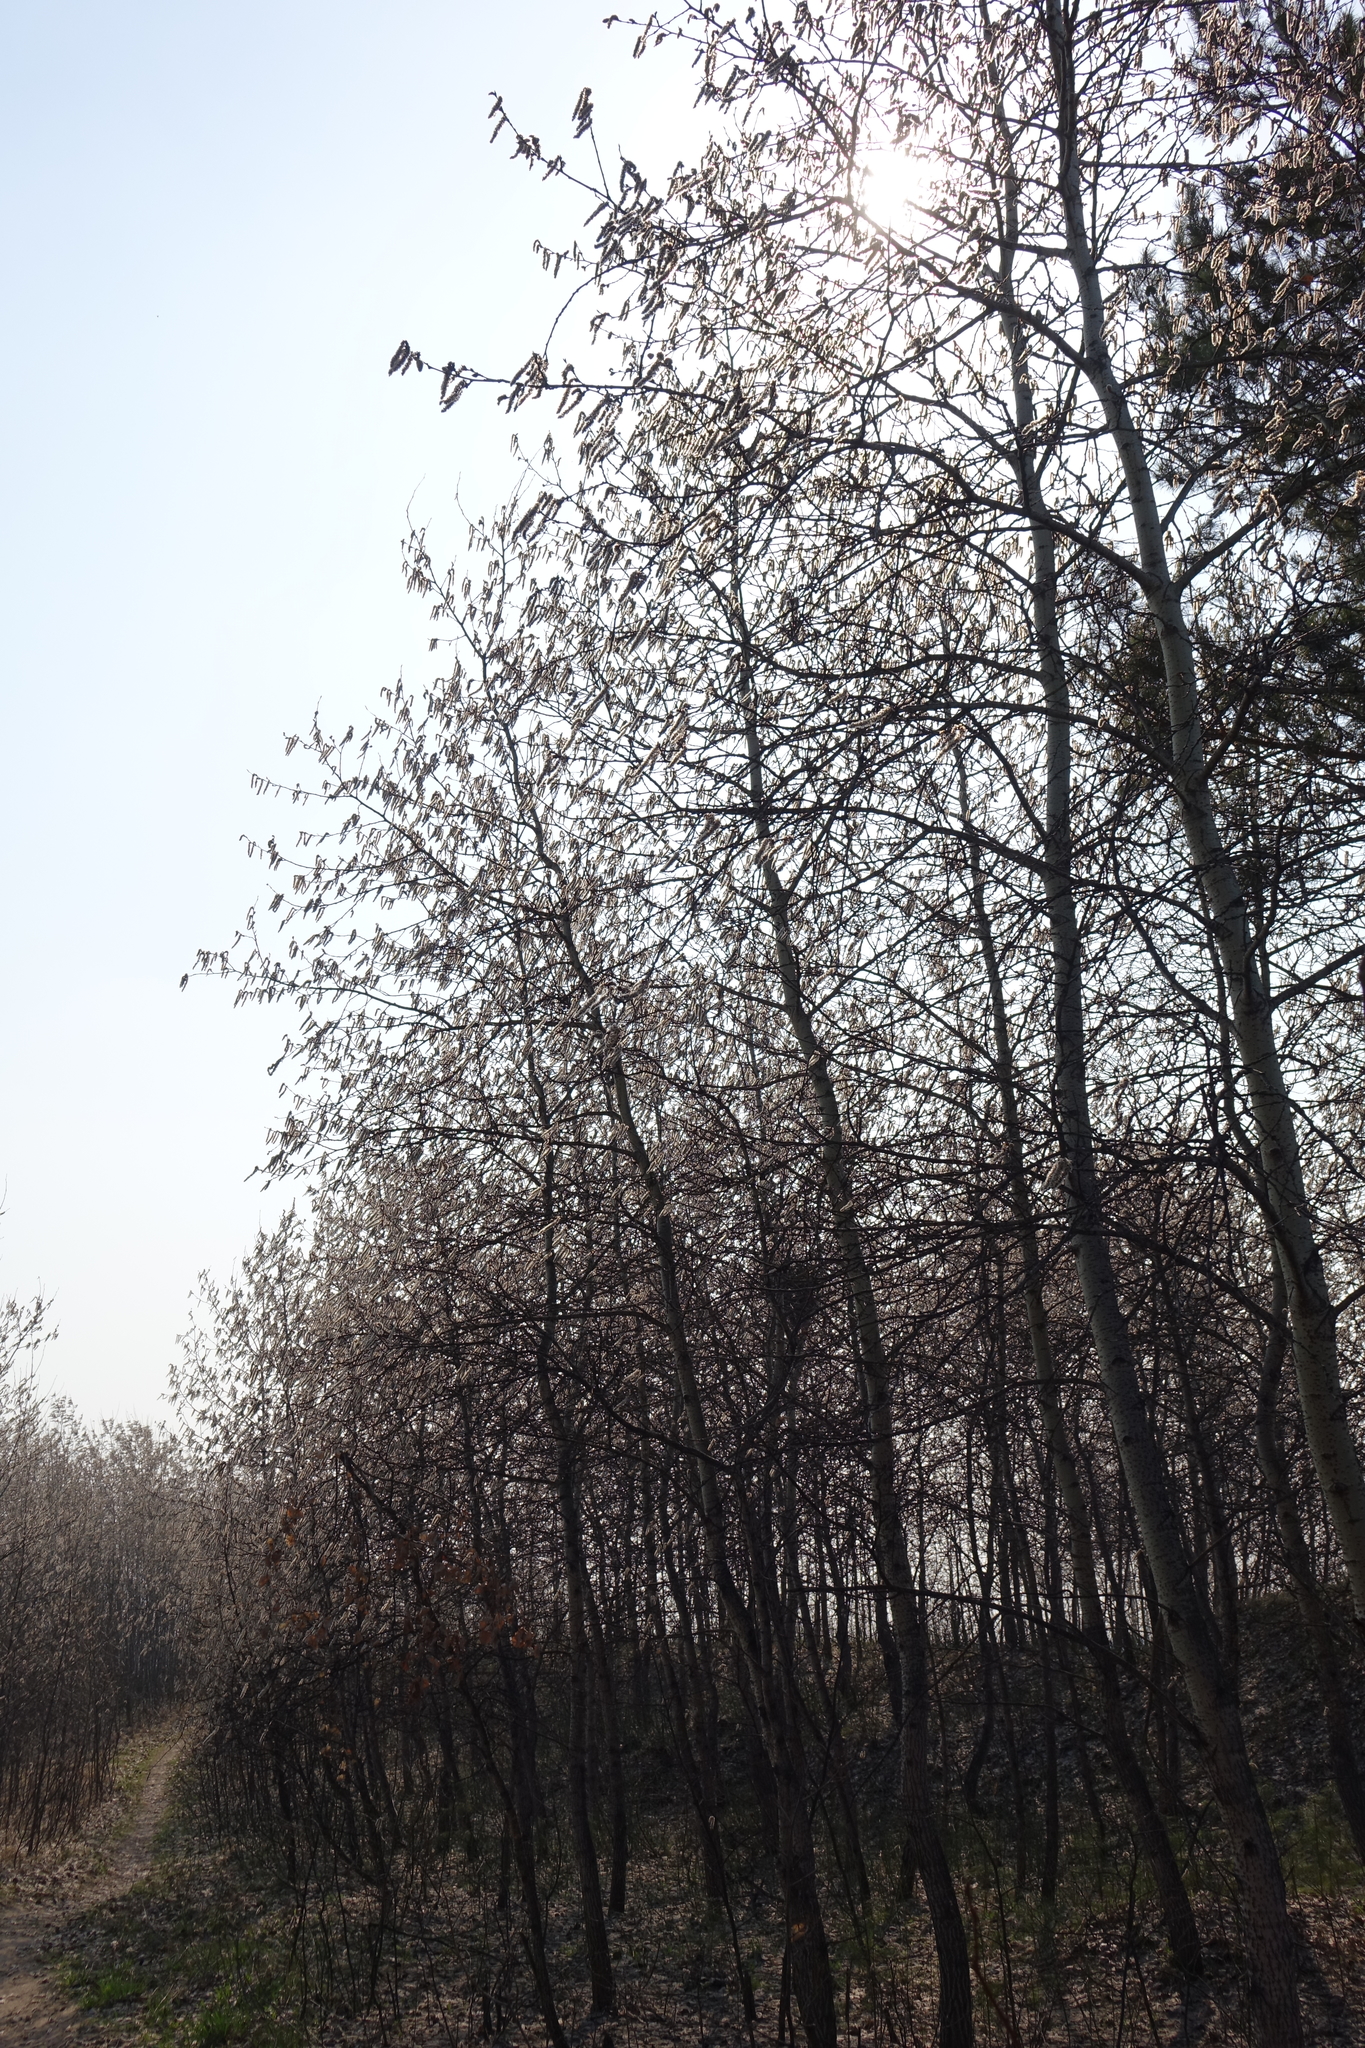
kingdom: Plantae
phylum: Tracheophyta
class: Magnoliopsida
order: Malpighiales
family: Salicaceae
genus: Populus
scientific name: Populus tremula
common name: European aspen
